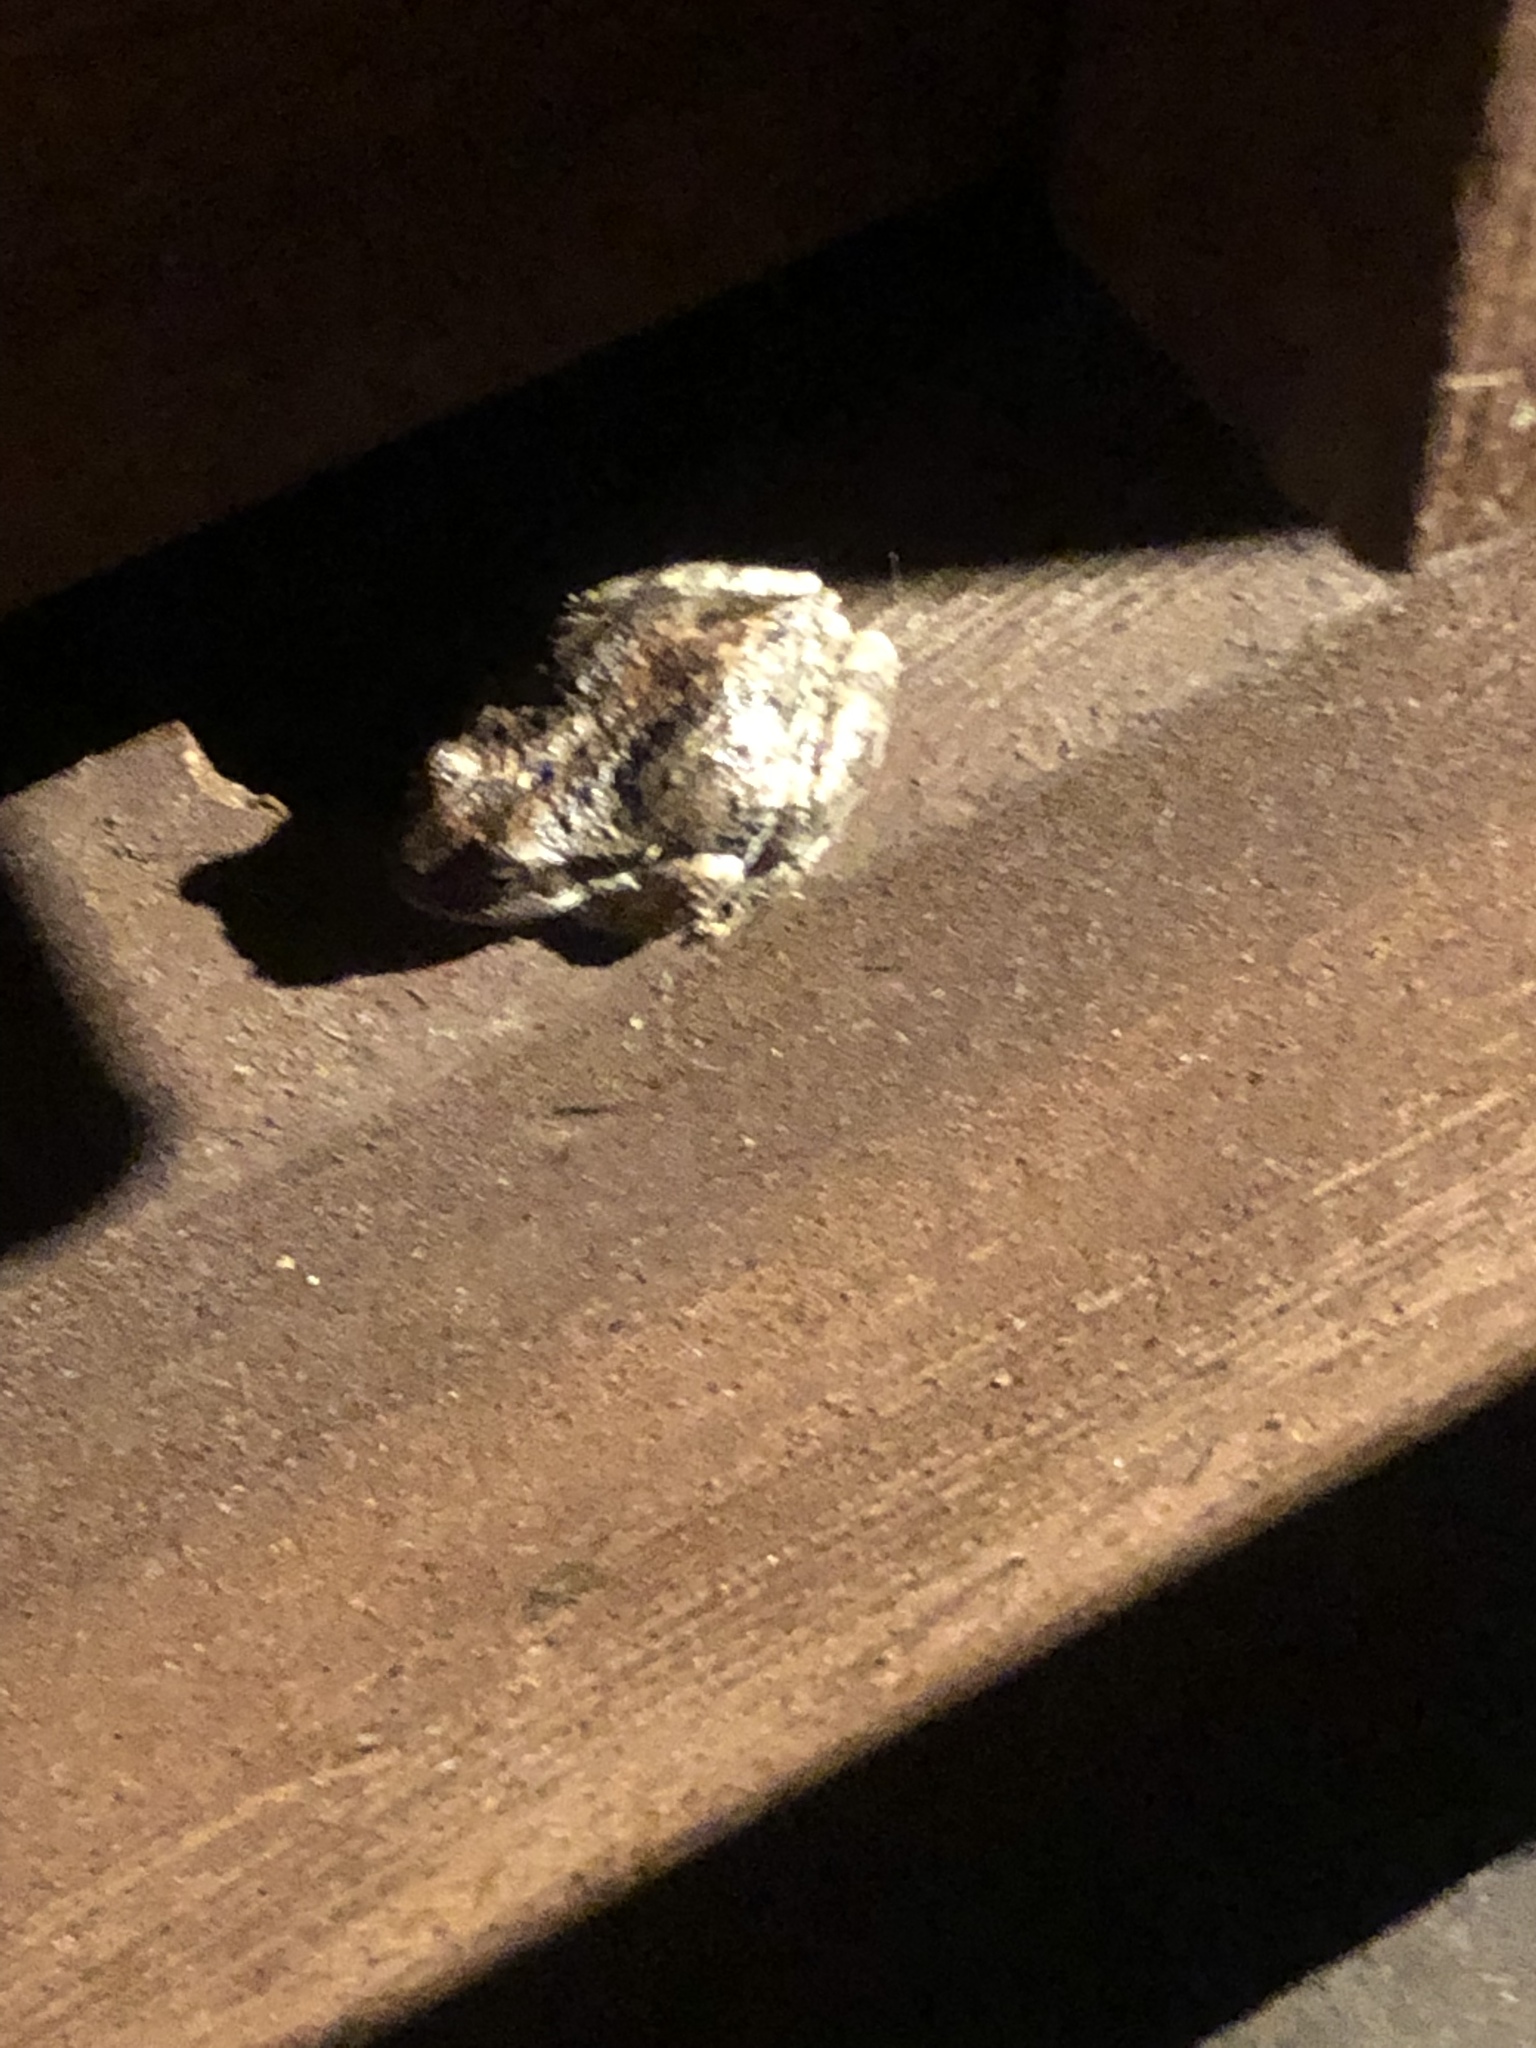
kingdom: Animalia
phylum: Chordata
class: Amphibia
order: Anura
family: Hylidae
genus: Pseudacris
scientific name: Pseudacris regilla
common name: Pacific chorus frog
